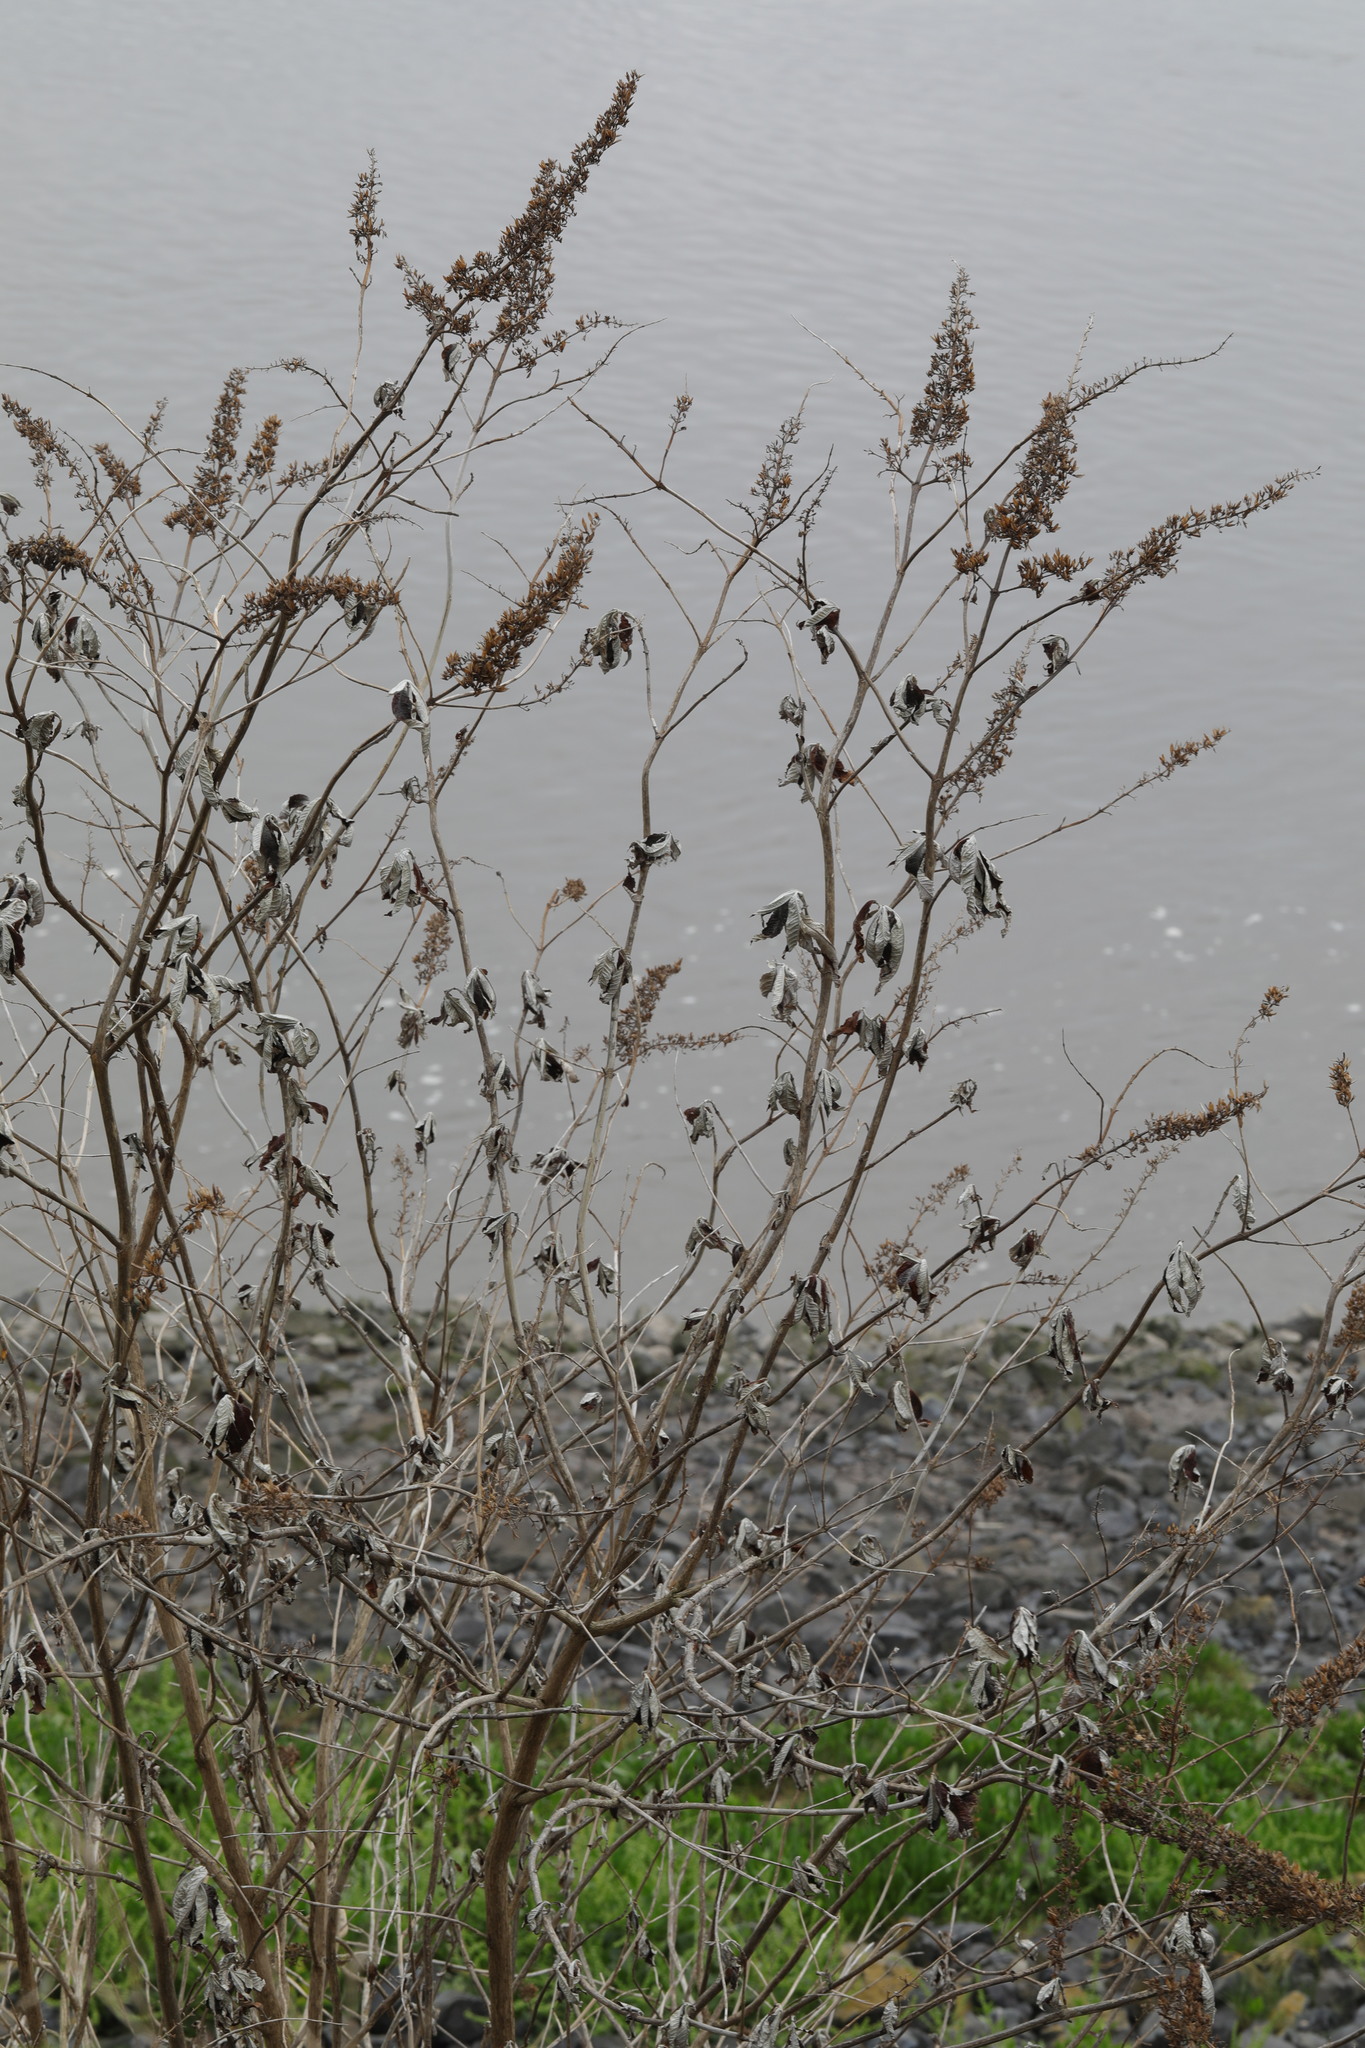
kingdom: Plantae
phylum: Tracheophyta
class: Magnoliopsida
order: Lamiales
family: Scrophulariaceae
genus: Buddleja
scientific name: Buddleja davidii
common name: Butterfly-bush
